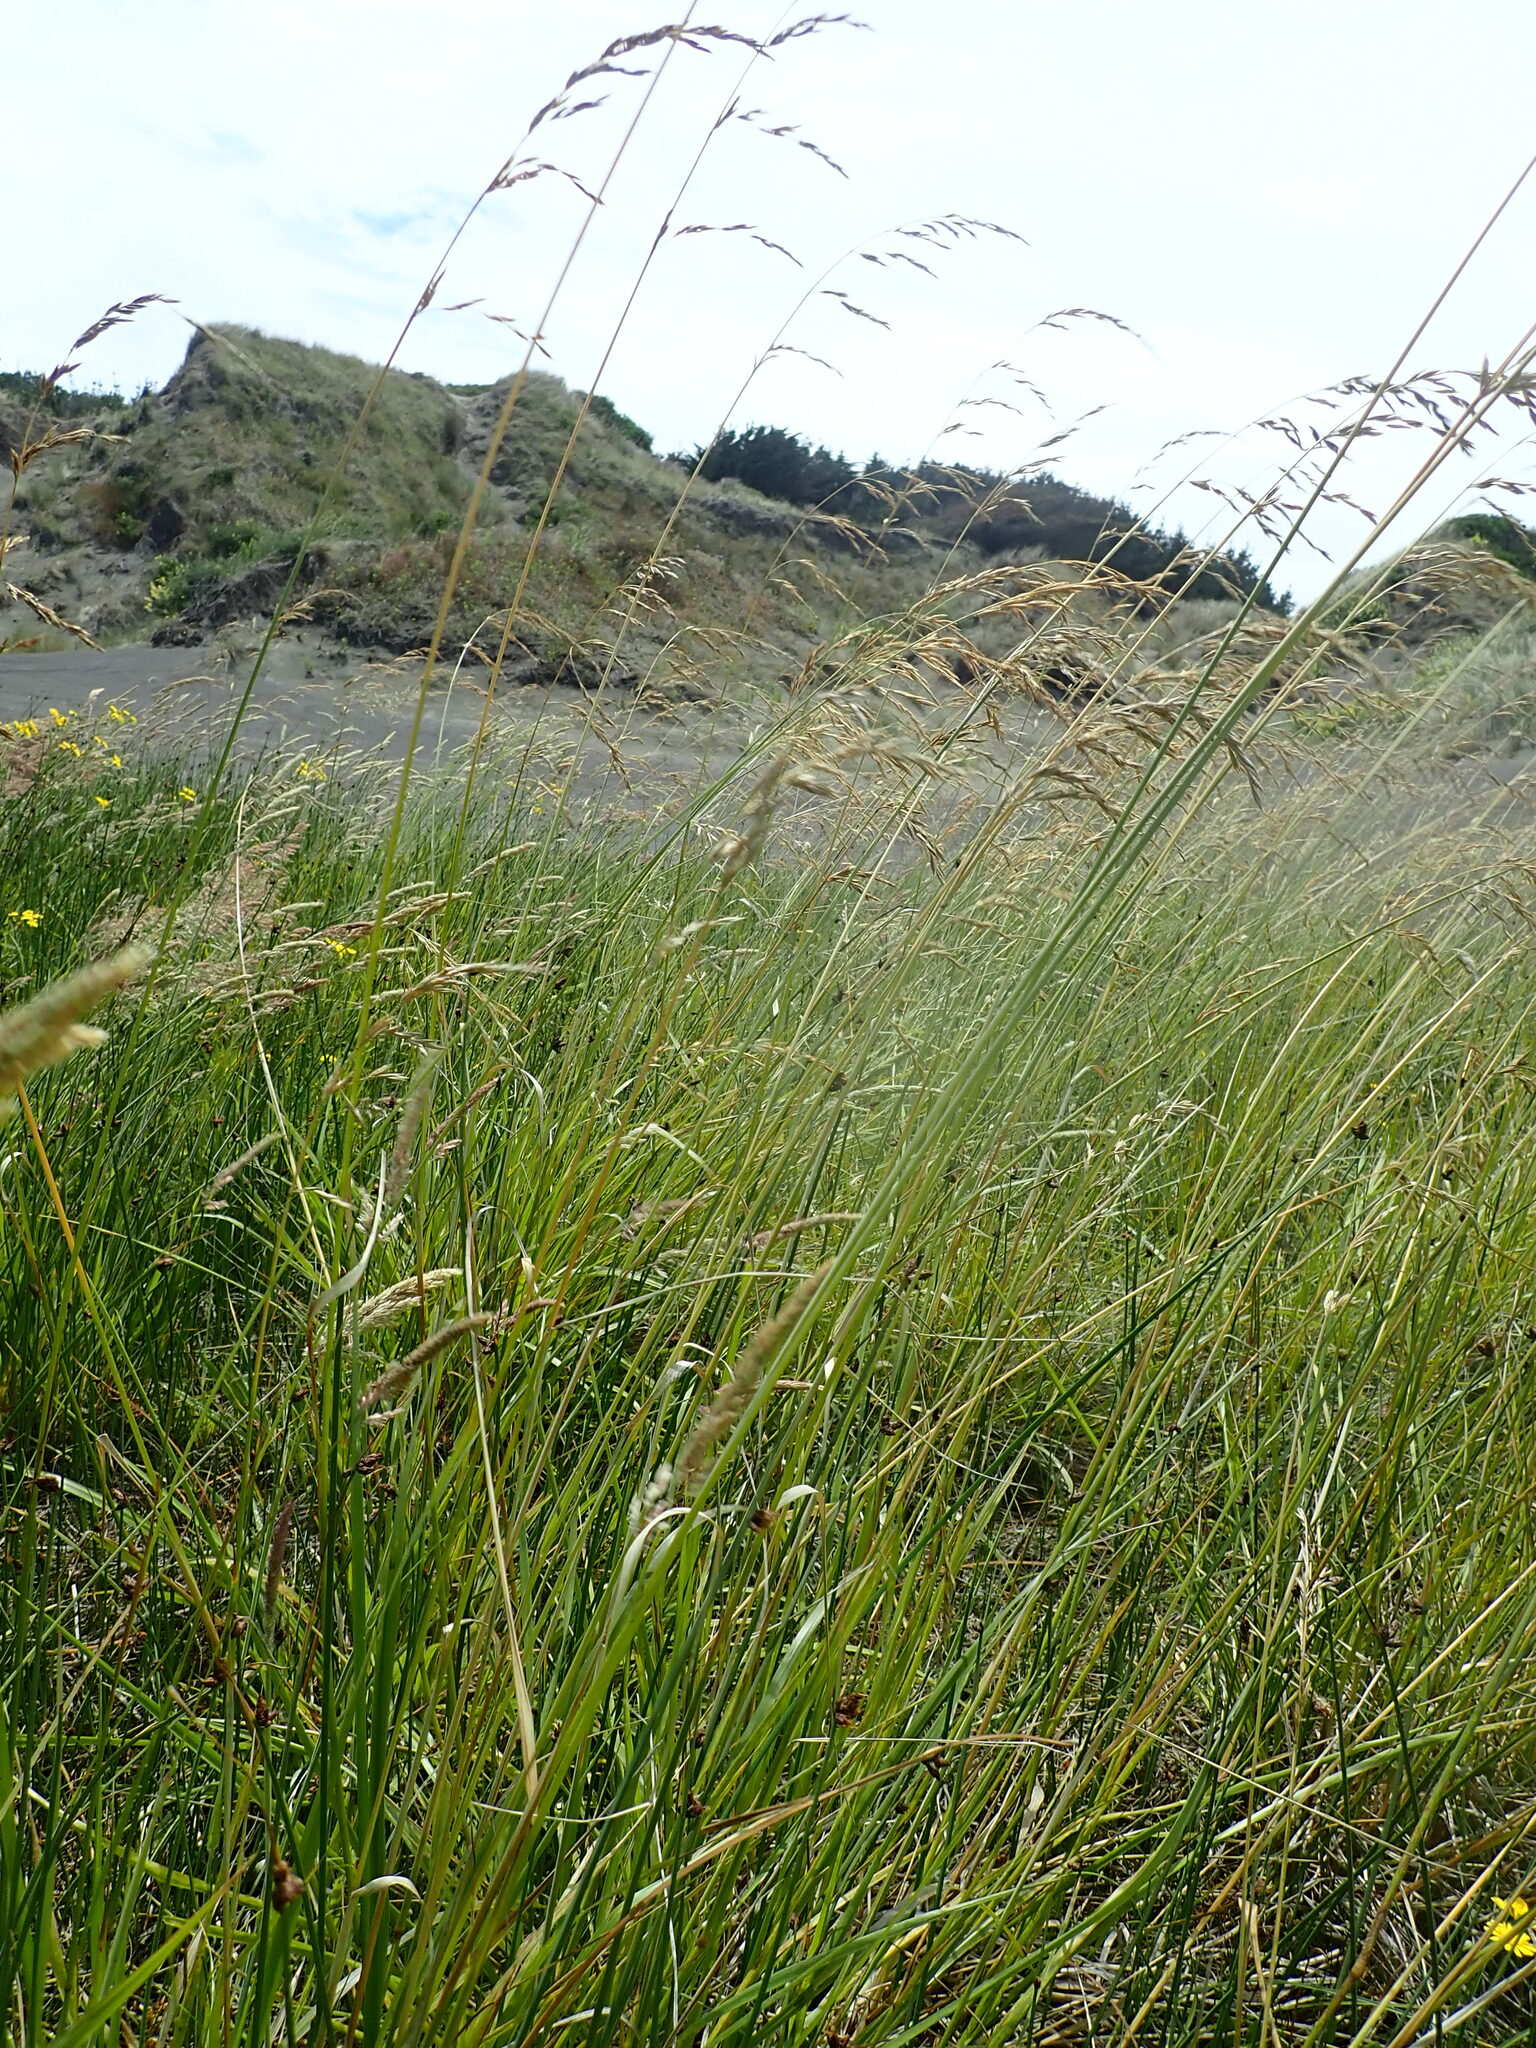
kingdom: Plantae
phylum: Tracheophyta
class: Liliopsida
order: Poales
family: Poaceae
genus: Lolium
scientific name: Lolium arundinaceum
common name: Reed fescue
